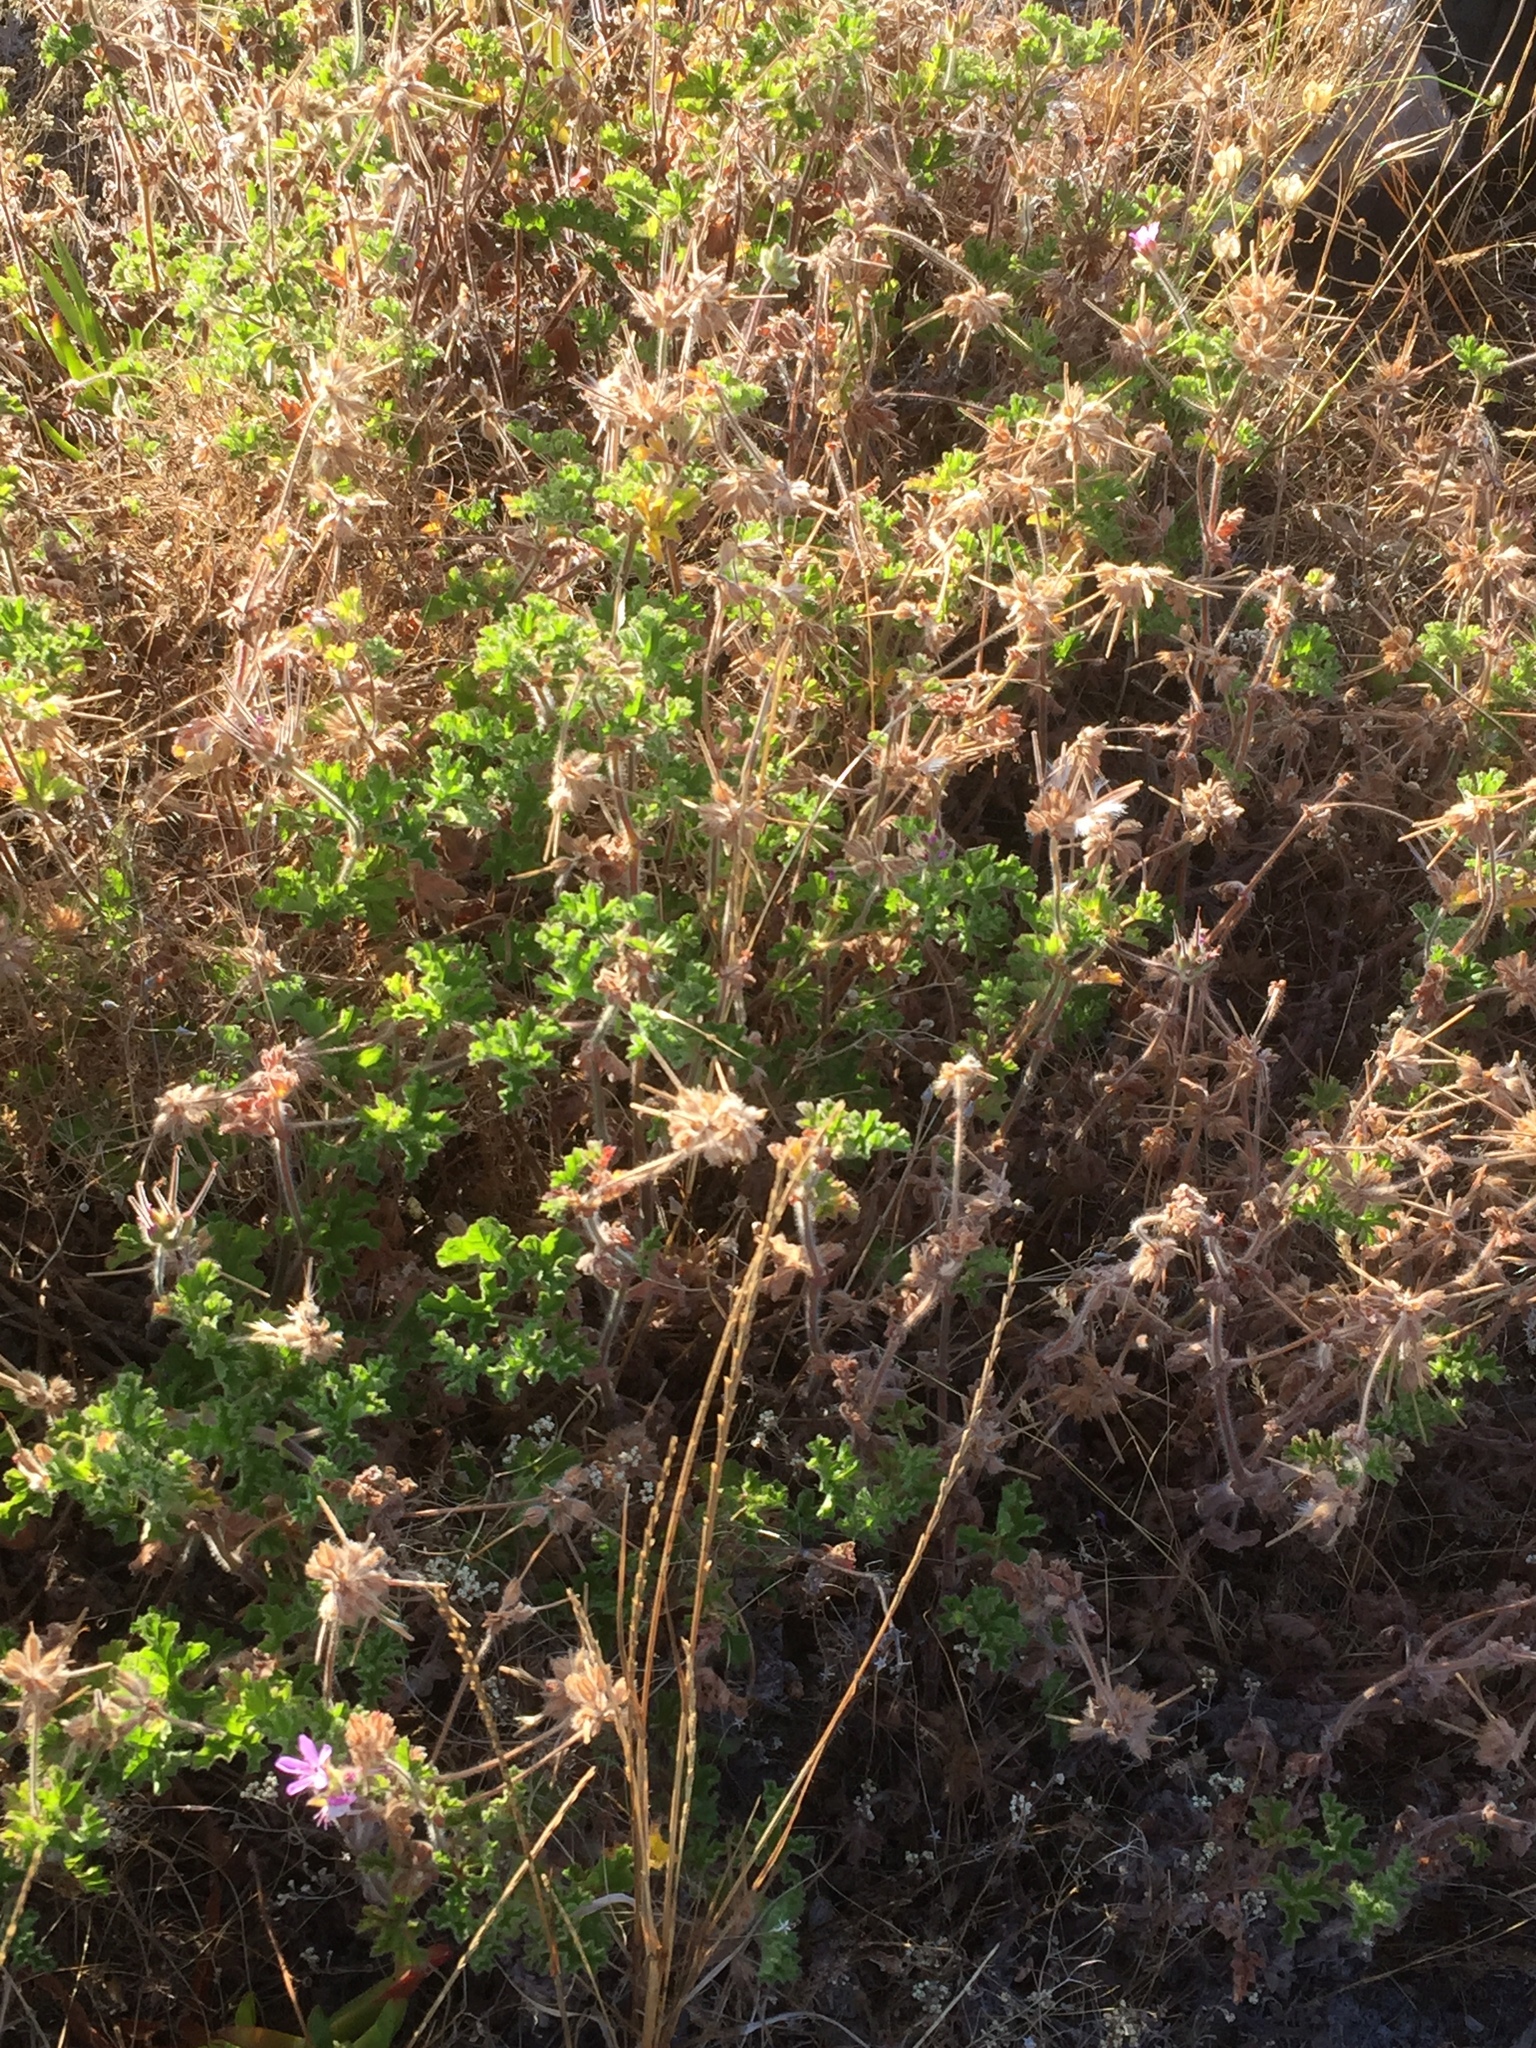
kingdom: Plantae
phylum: Tracheophyta
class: Magnoliopsida
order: Geraniales
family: Geraniaceae
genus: Pelargonium
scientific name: Pelargonium capitatum
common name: Rose scented geranium
